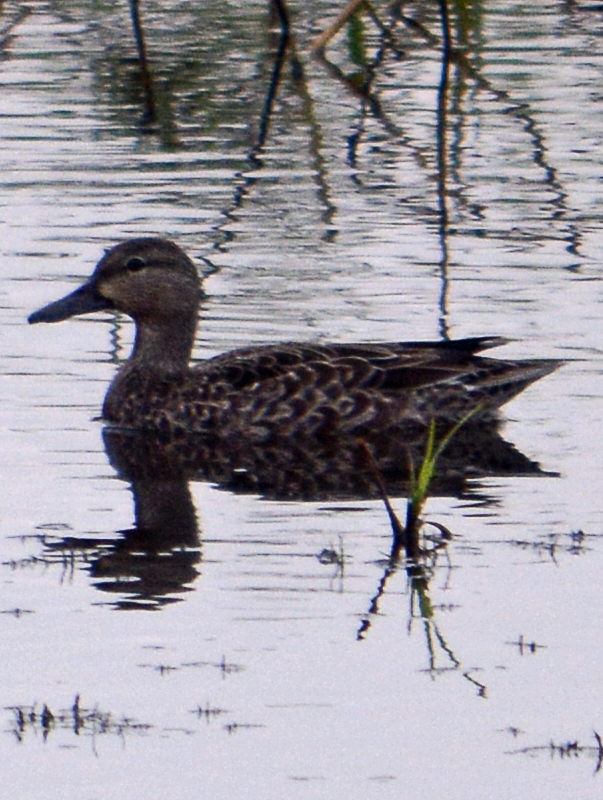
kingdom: Animalia
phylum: Chordata
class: Aves
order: Anseriformes
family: Anatidae
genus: Spatula
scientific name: Spatula discors
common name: Blue-winged teal
